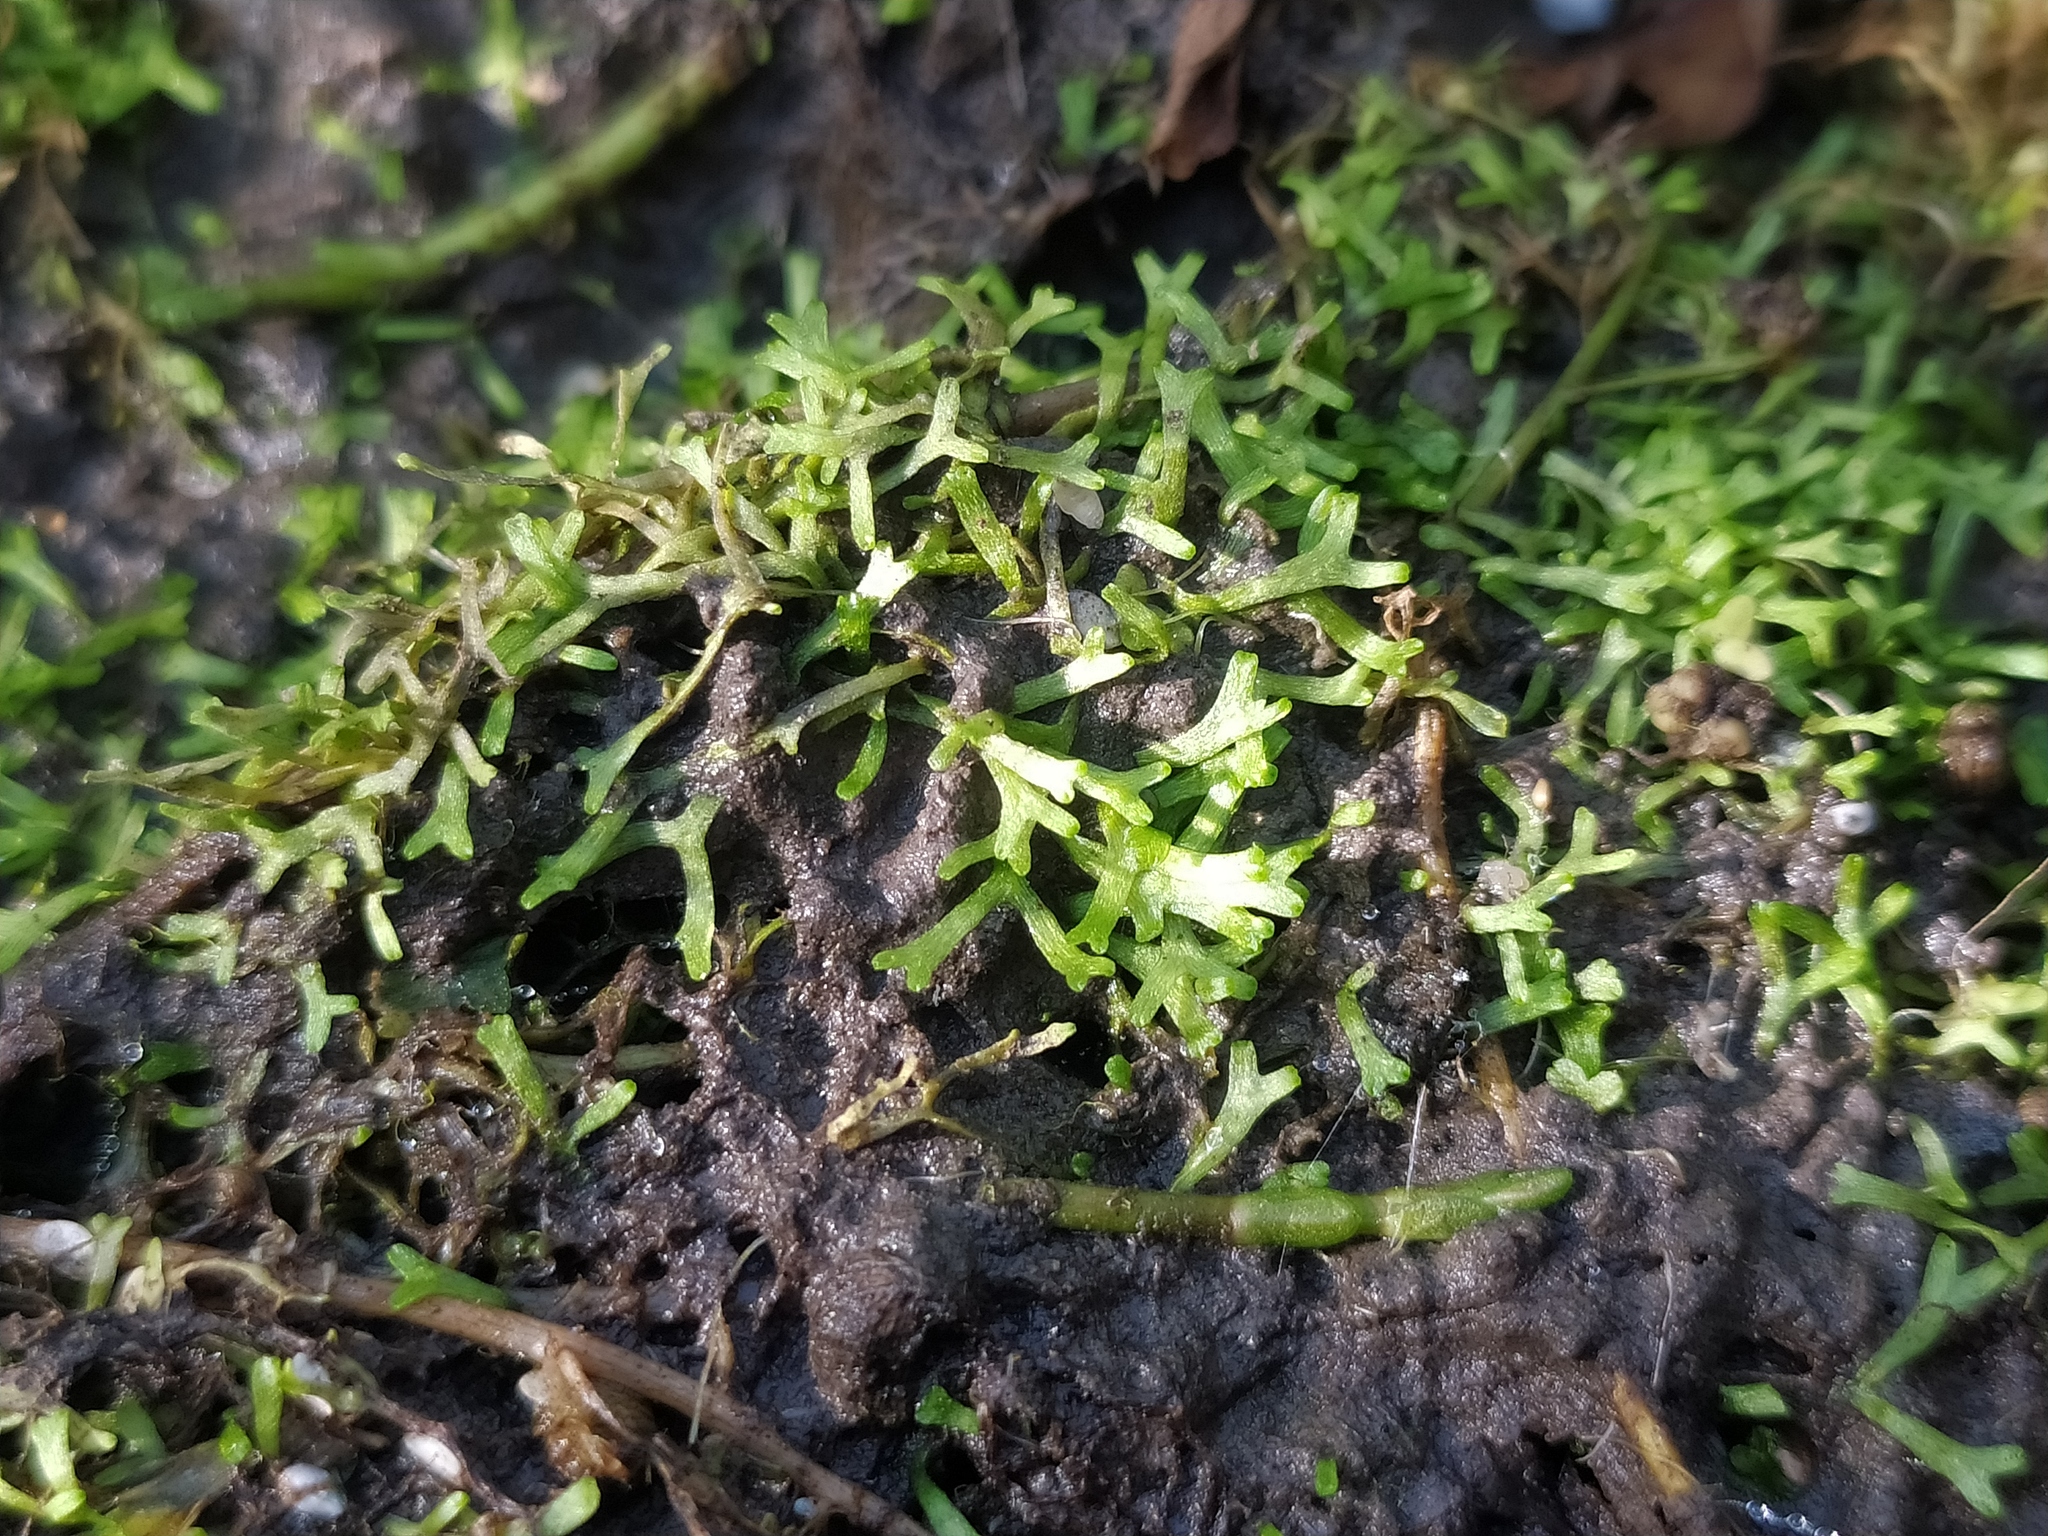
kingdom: Plantae
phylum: Marchantiophyta
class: Marchantiopsida
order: Marchantiales
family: Ricciaceae
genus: Riccia
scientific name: Riccia fluitans
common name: Floating crystalwort
